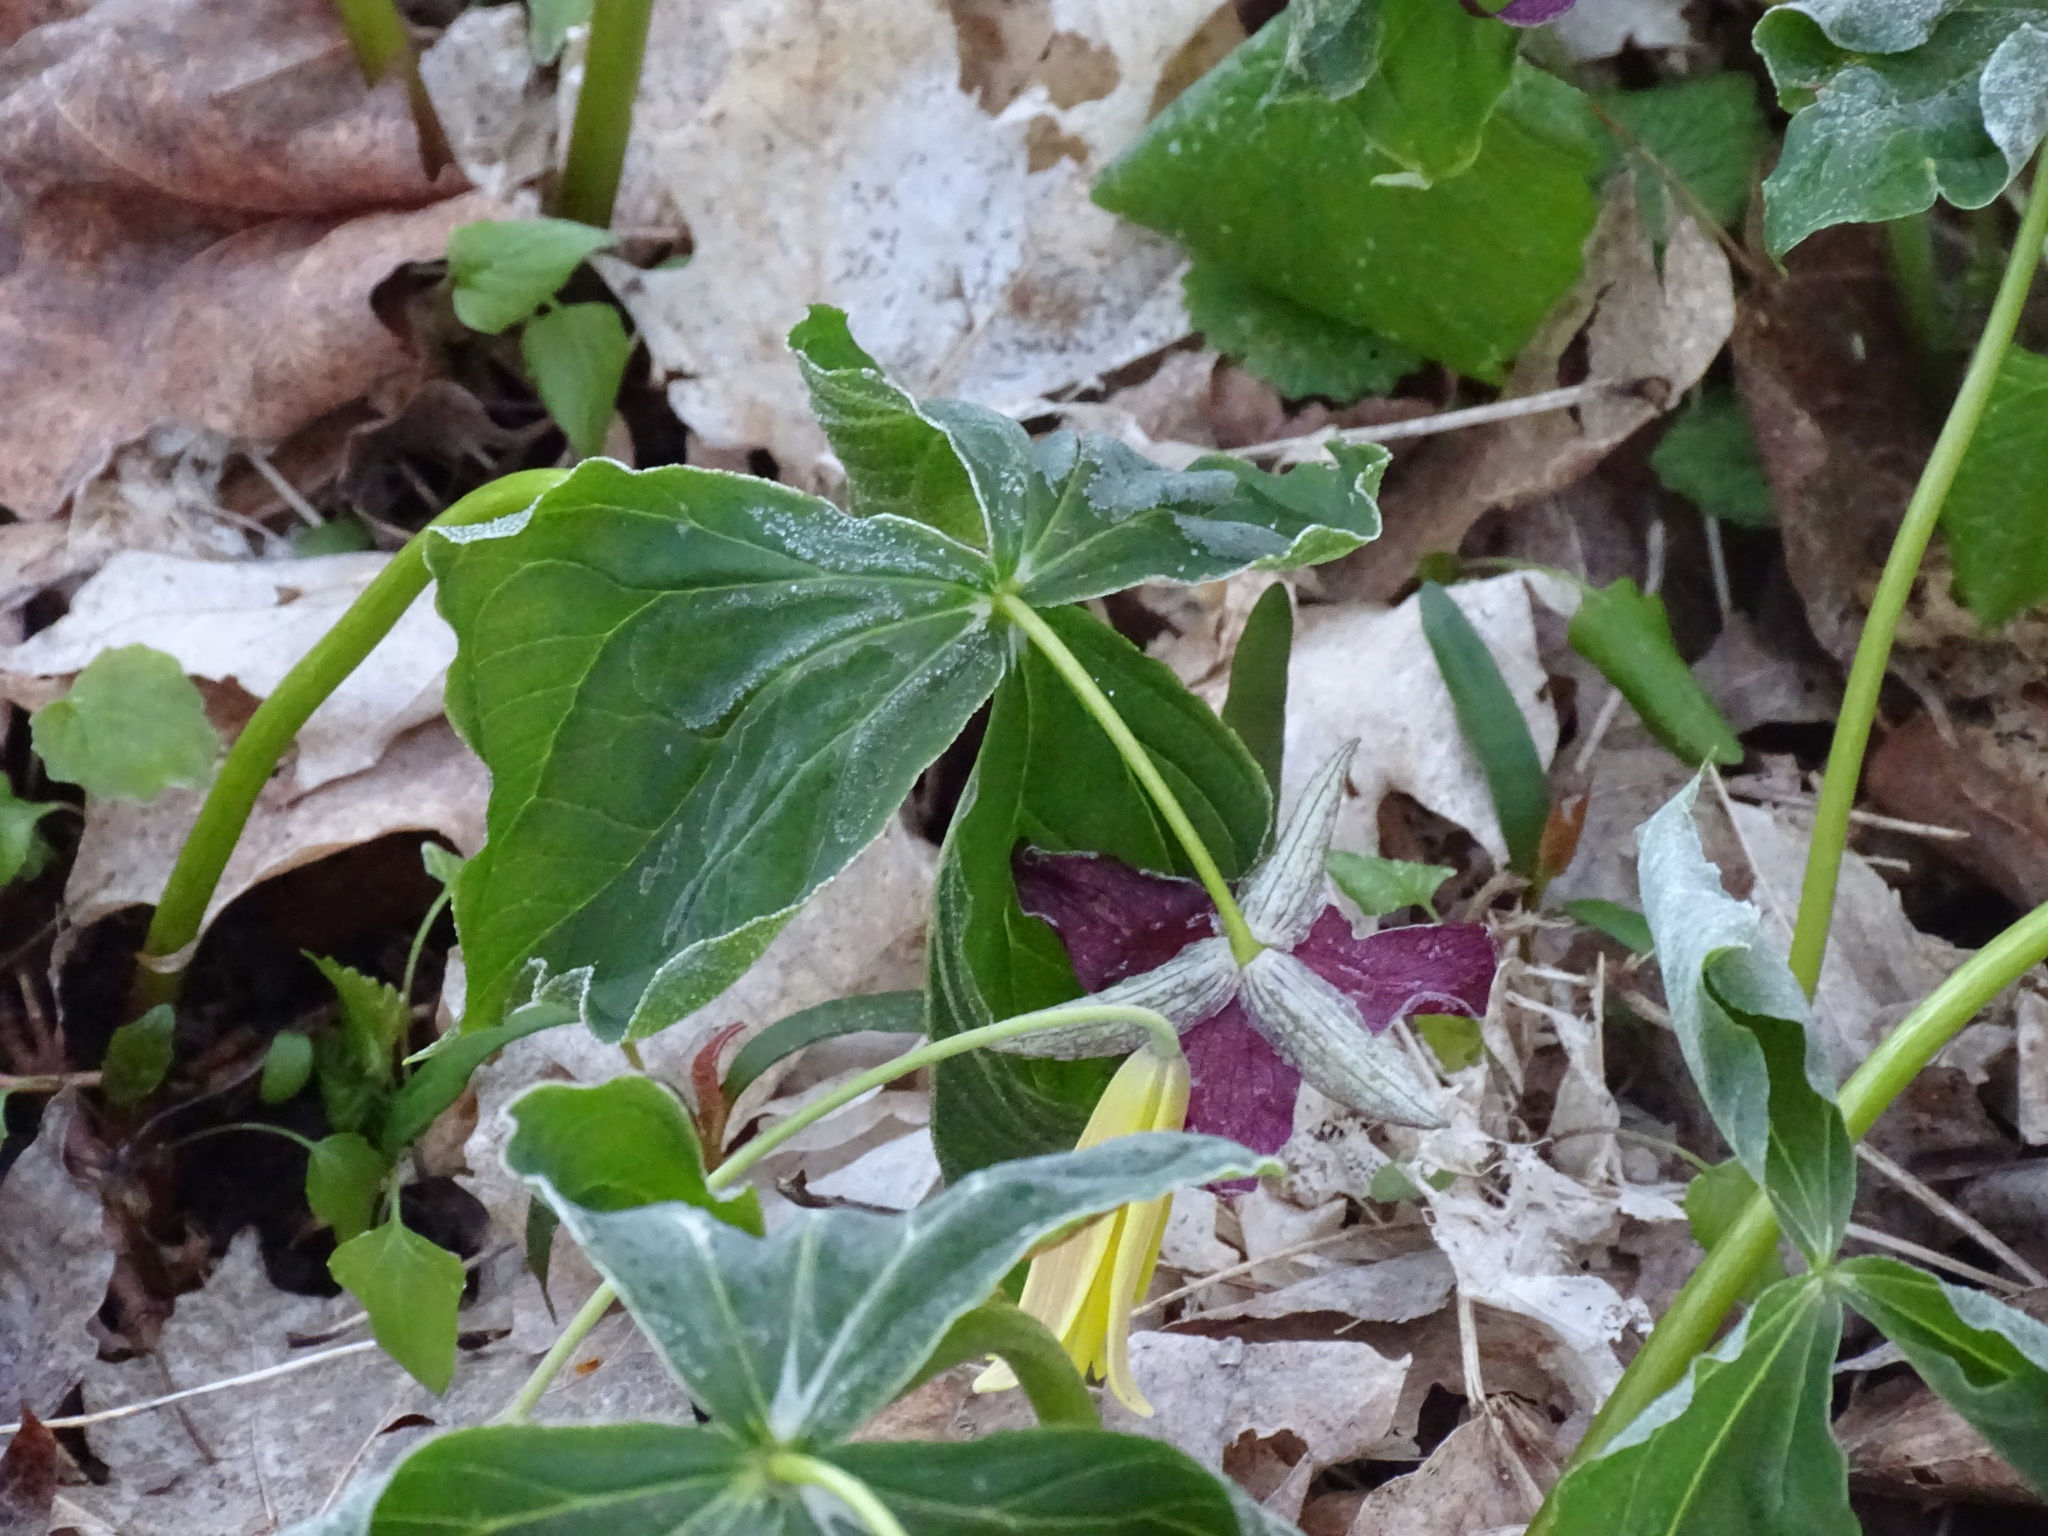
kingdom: Plantae
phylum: Tracheophyta
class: Liliopsida
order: Liliales
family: Melanthiaceae
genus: Trillium
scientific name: Trillium erectum
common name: Purple trillium
